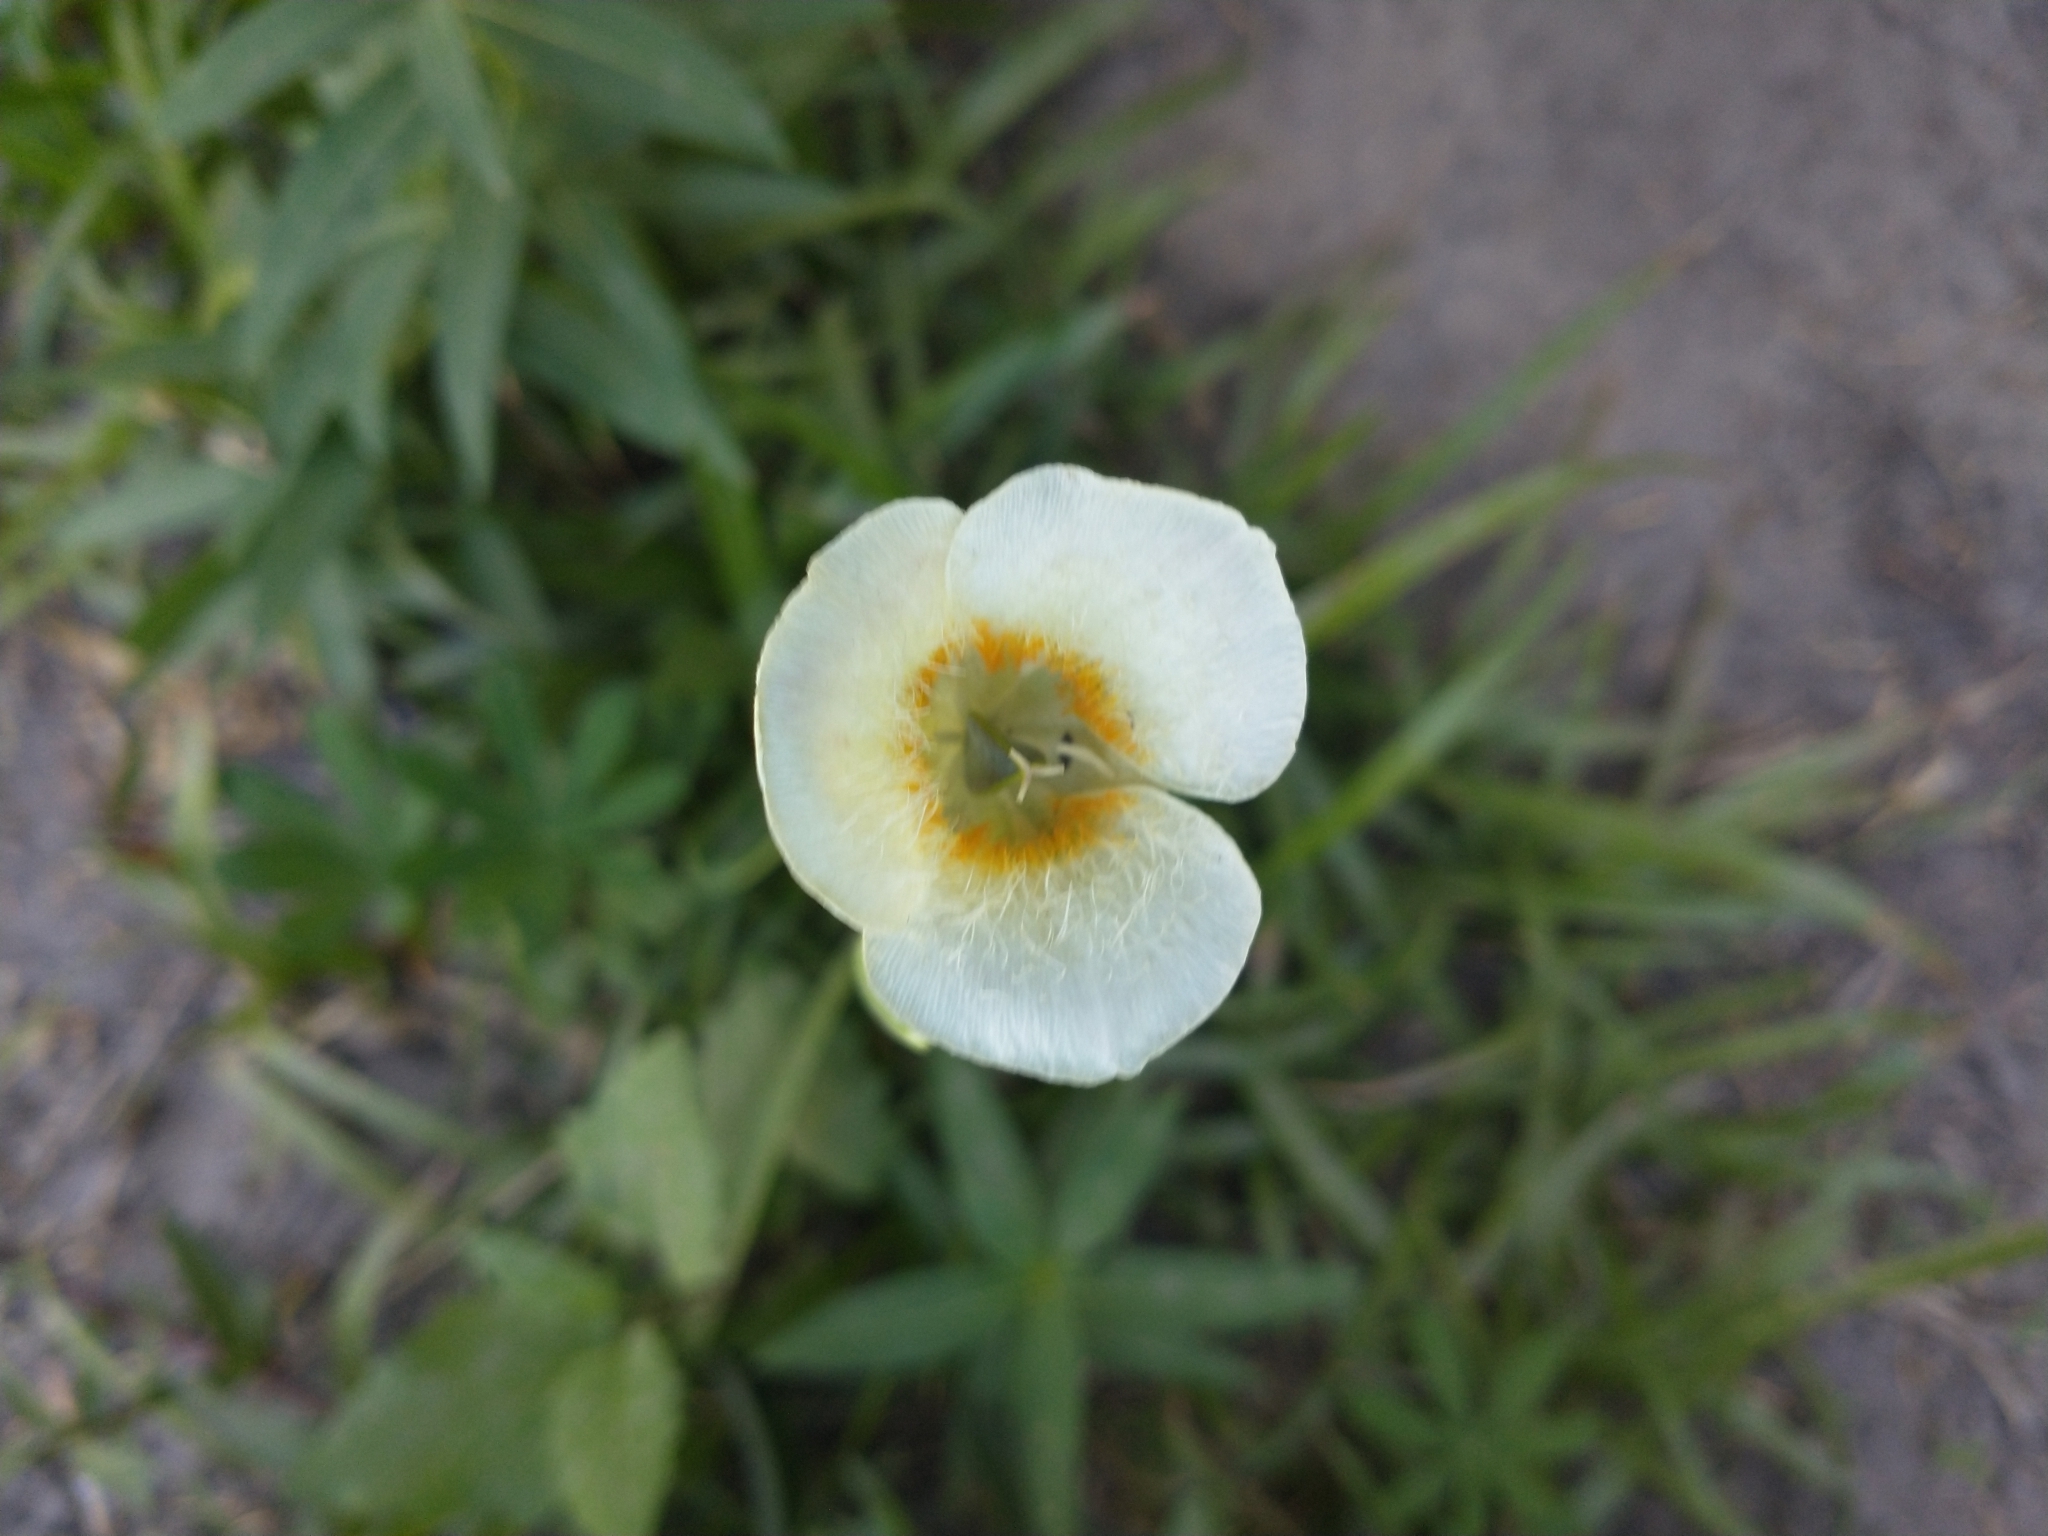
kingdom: Plantae
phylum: Tracheophyta
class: Liliopsida
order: Liliales
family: Liliaceae
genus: Calochortus
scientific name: Calochortus subalpinus
